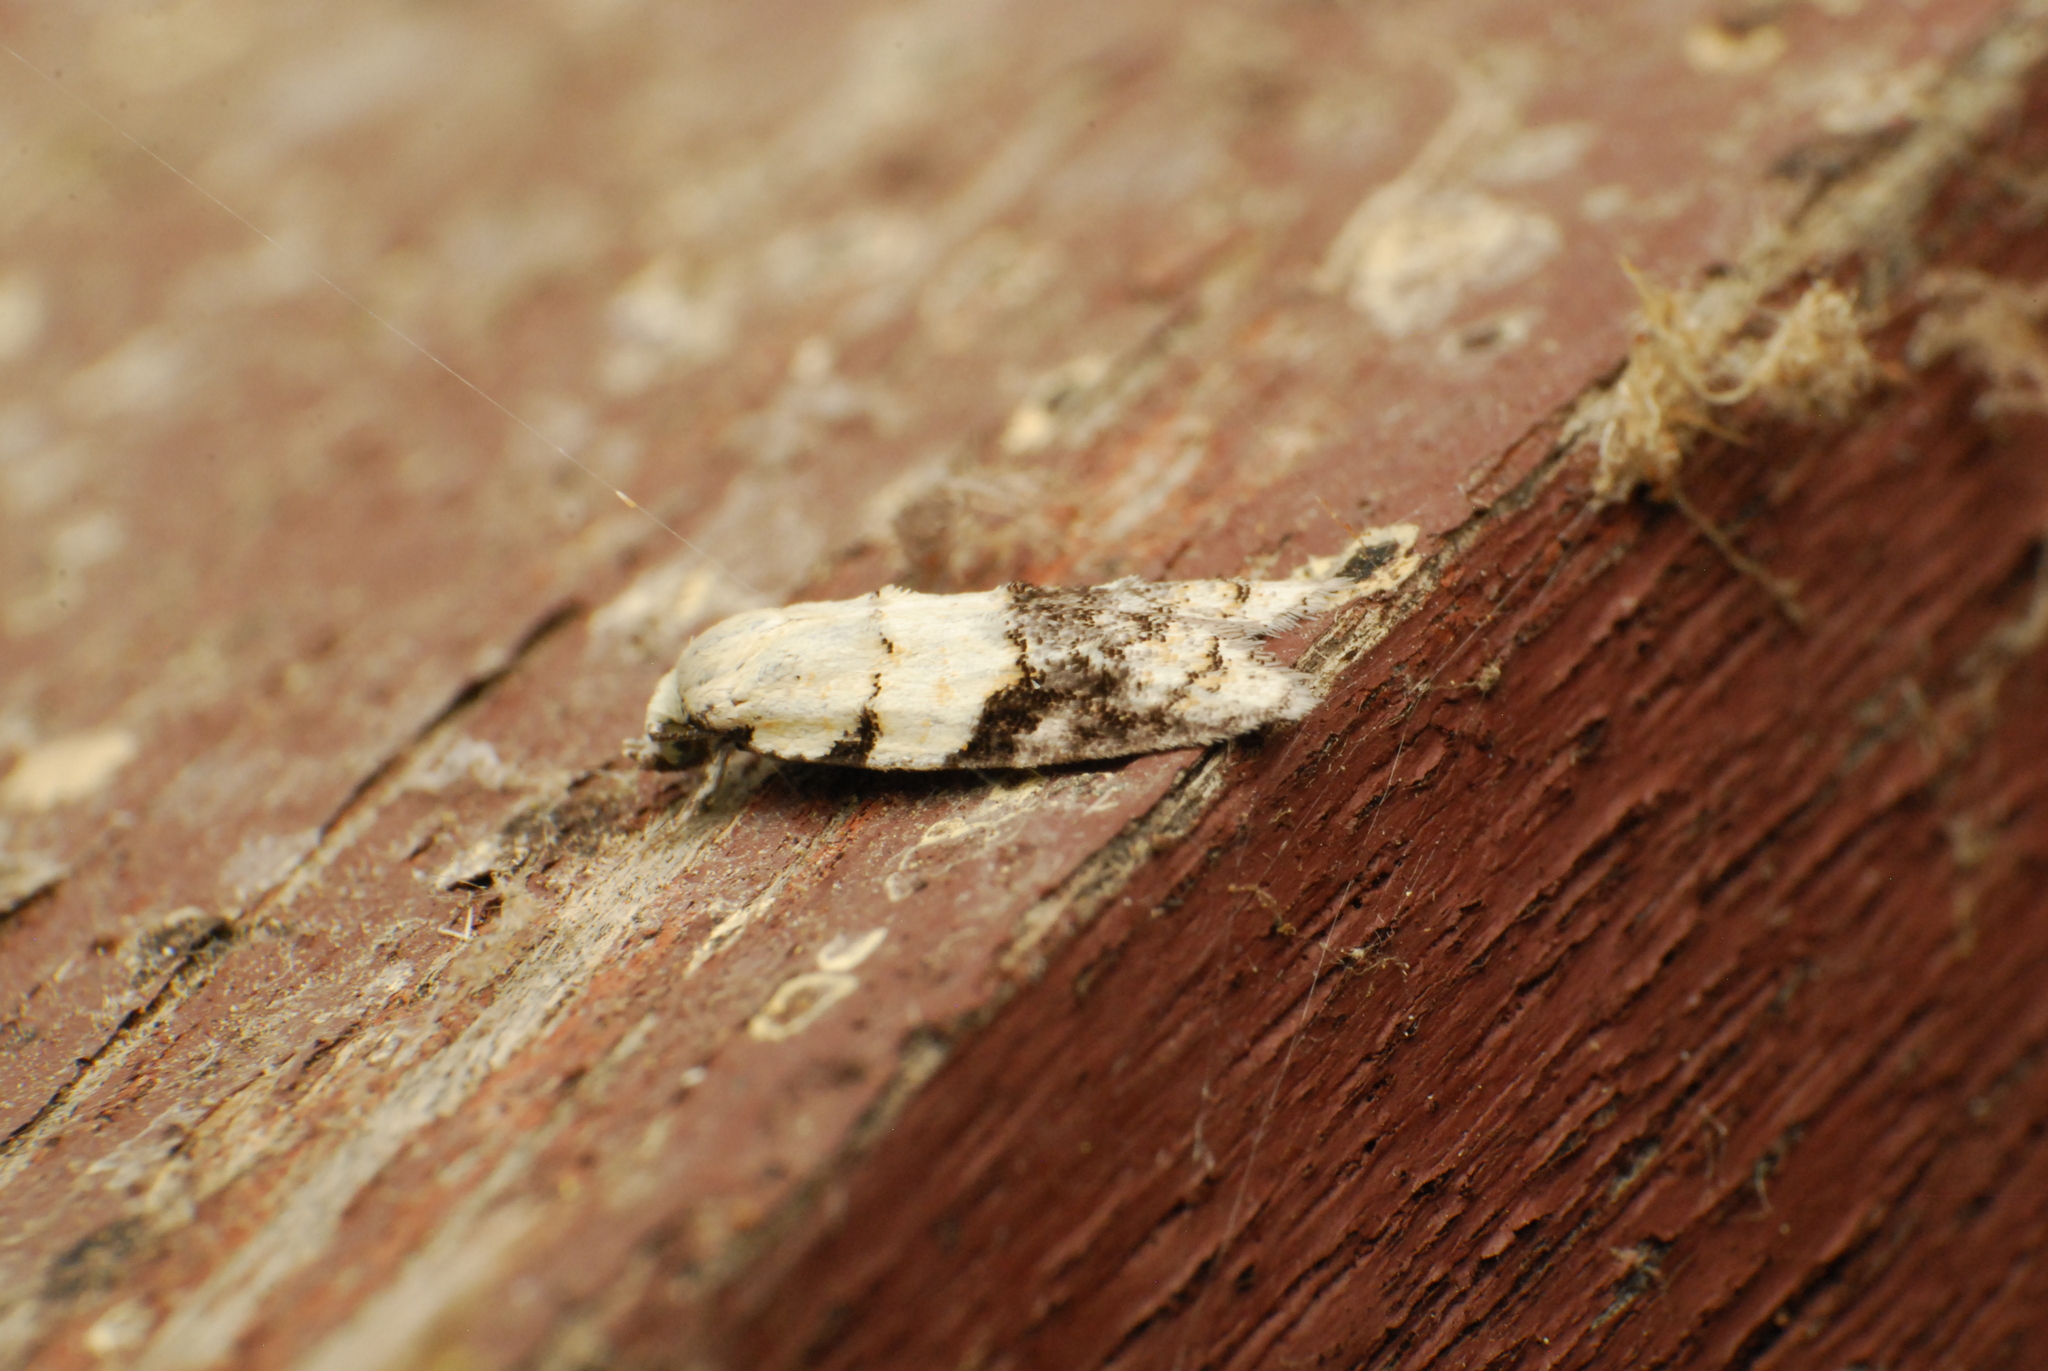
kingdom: Animalia
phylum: Arthropoda
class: Insecta
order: Lepidoptera
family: Tortricidae
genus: Tracholena
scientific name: Tracholena sulfurosa
